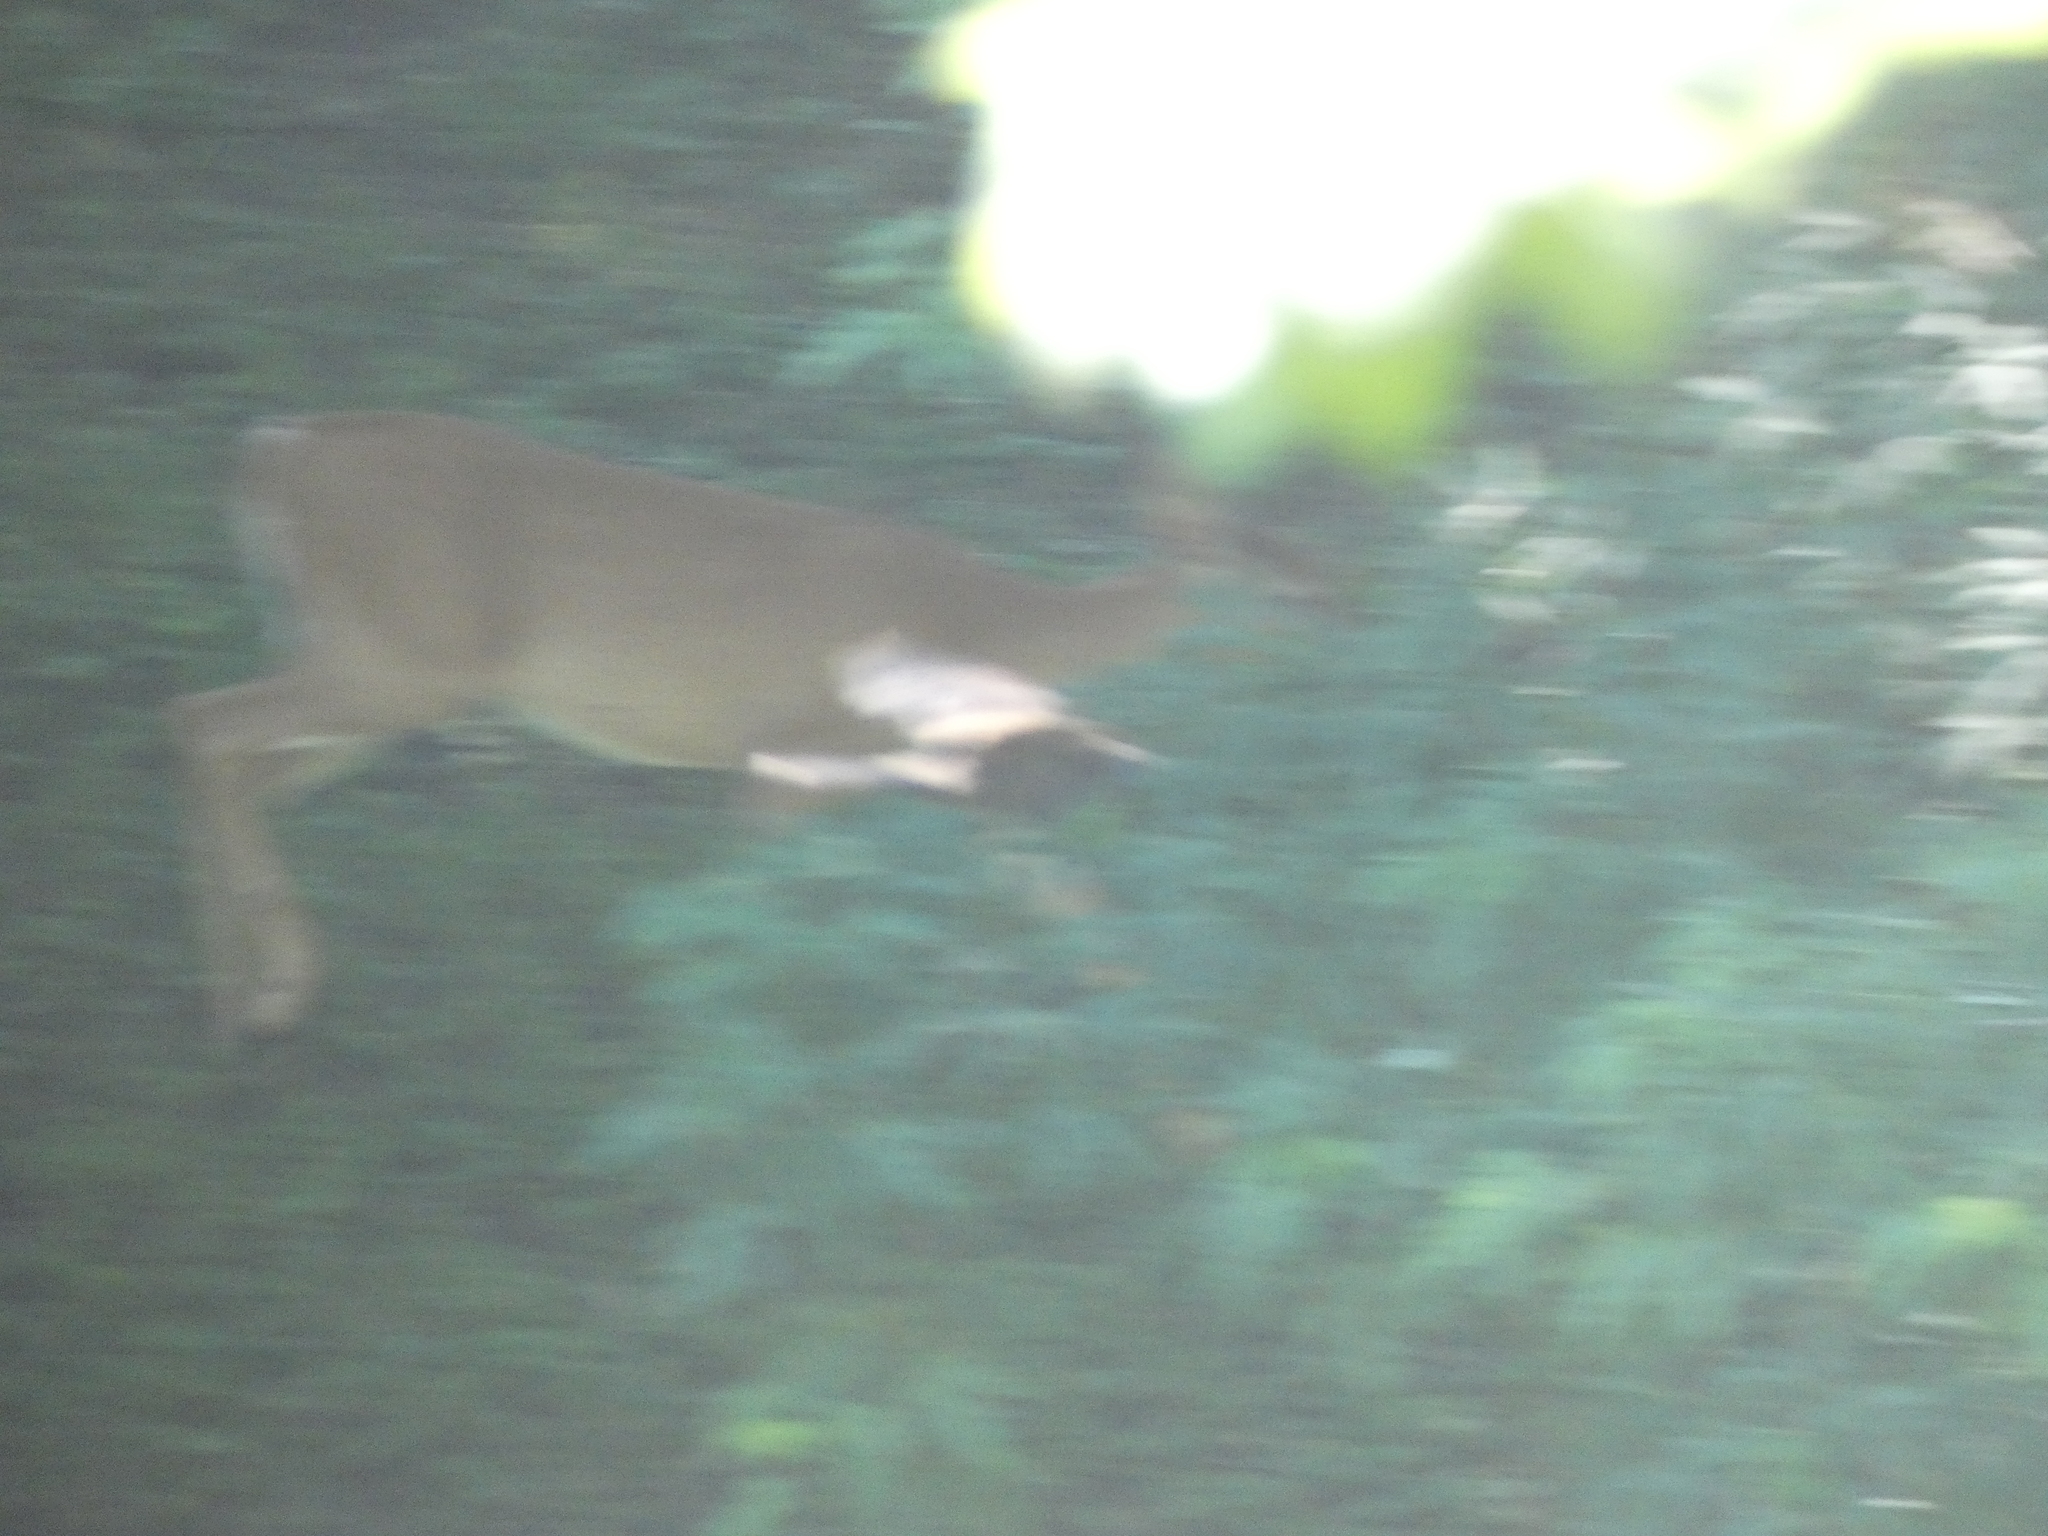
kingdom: Animalia
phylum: Chordata
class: Mammalia
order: Artiodactyla
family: Cervidae
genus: Odocoileus
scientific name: Odocoileus virginianus
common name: White-tailed deer
